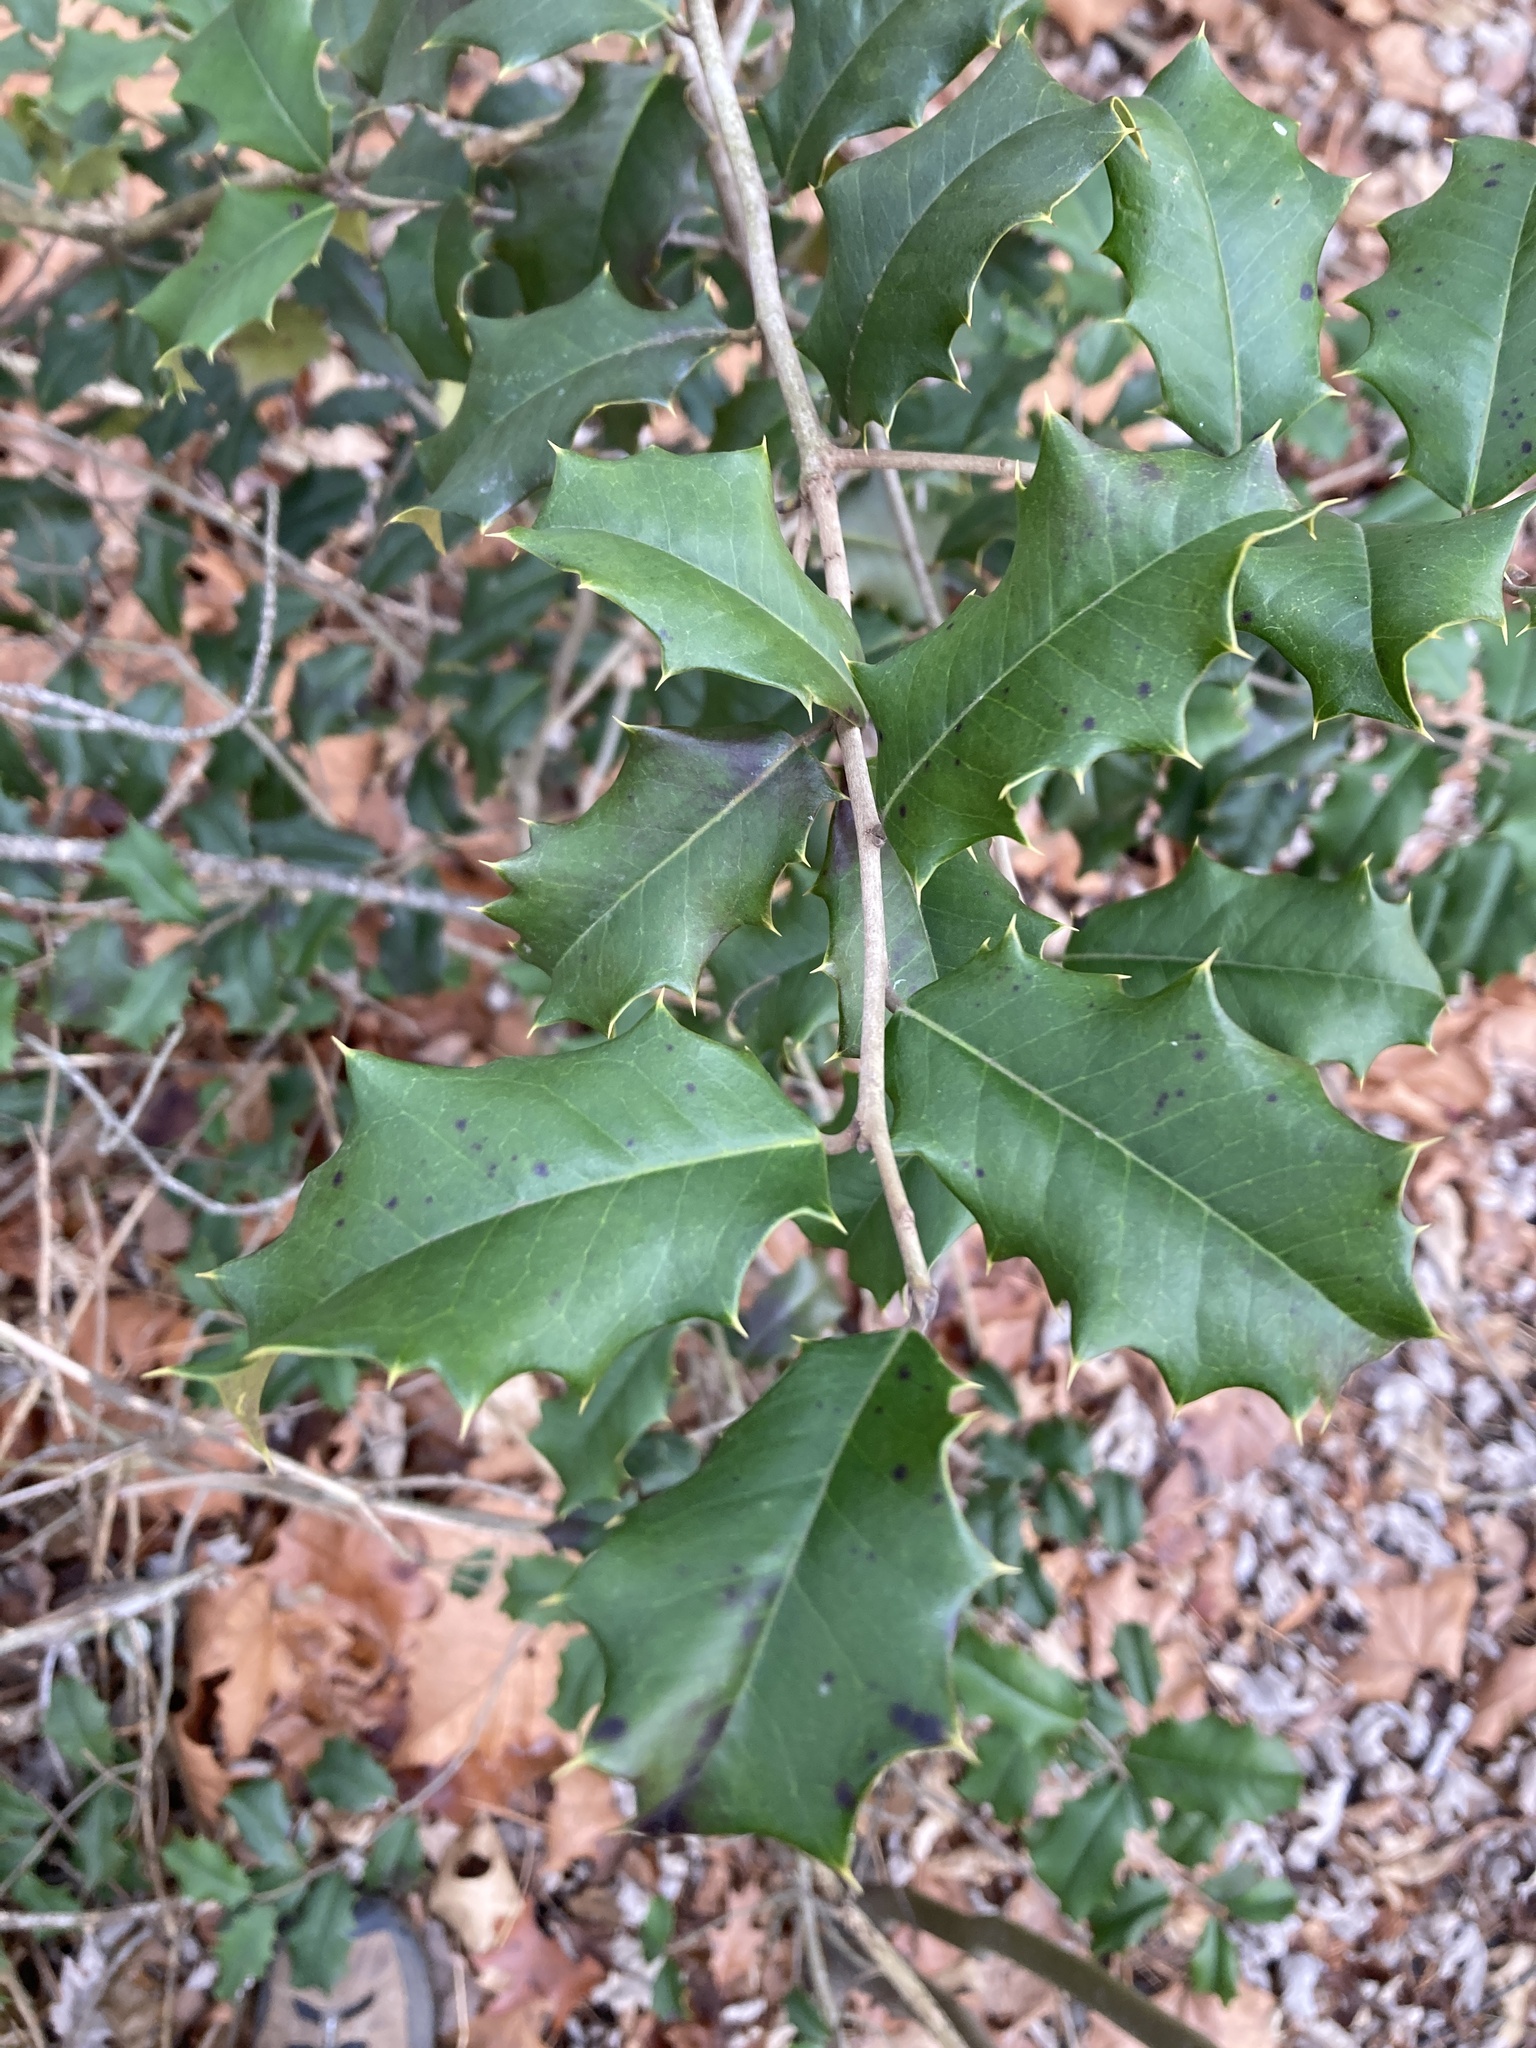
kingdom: Plantae
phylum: Tracheophyta
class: Magnoliopsida
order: Aquifoliales
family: Aquifoliaceae
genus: Ilex
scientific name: Ilex opaca
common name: American holly
